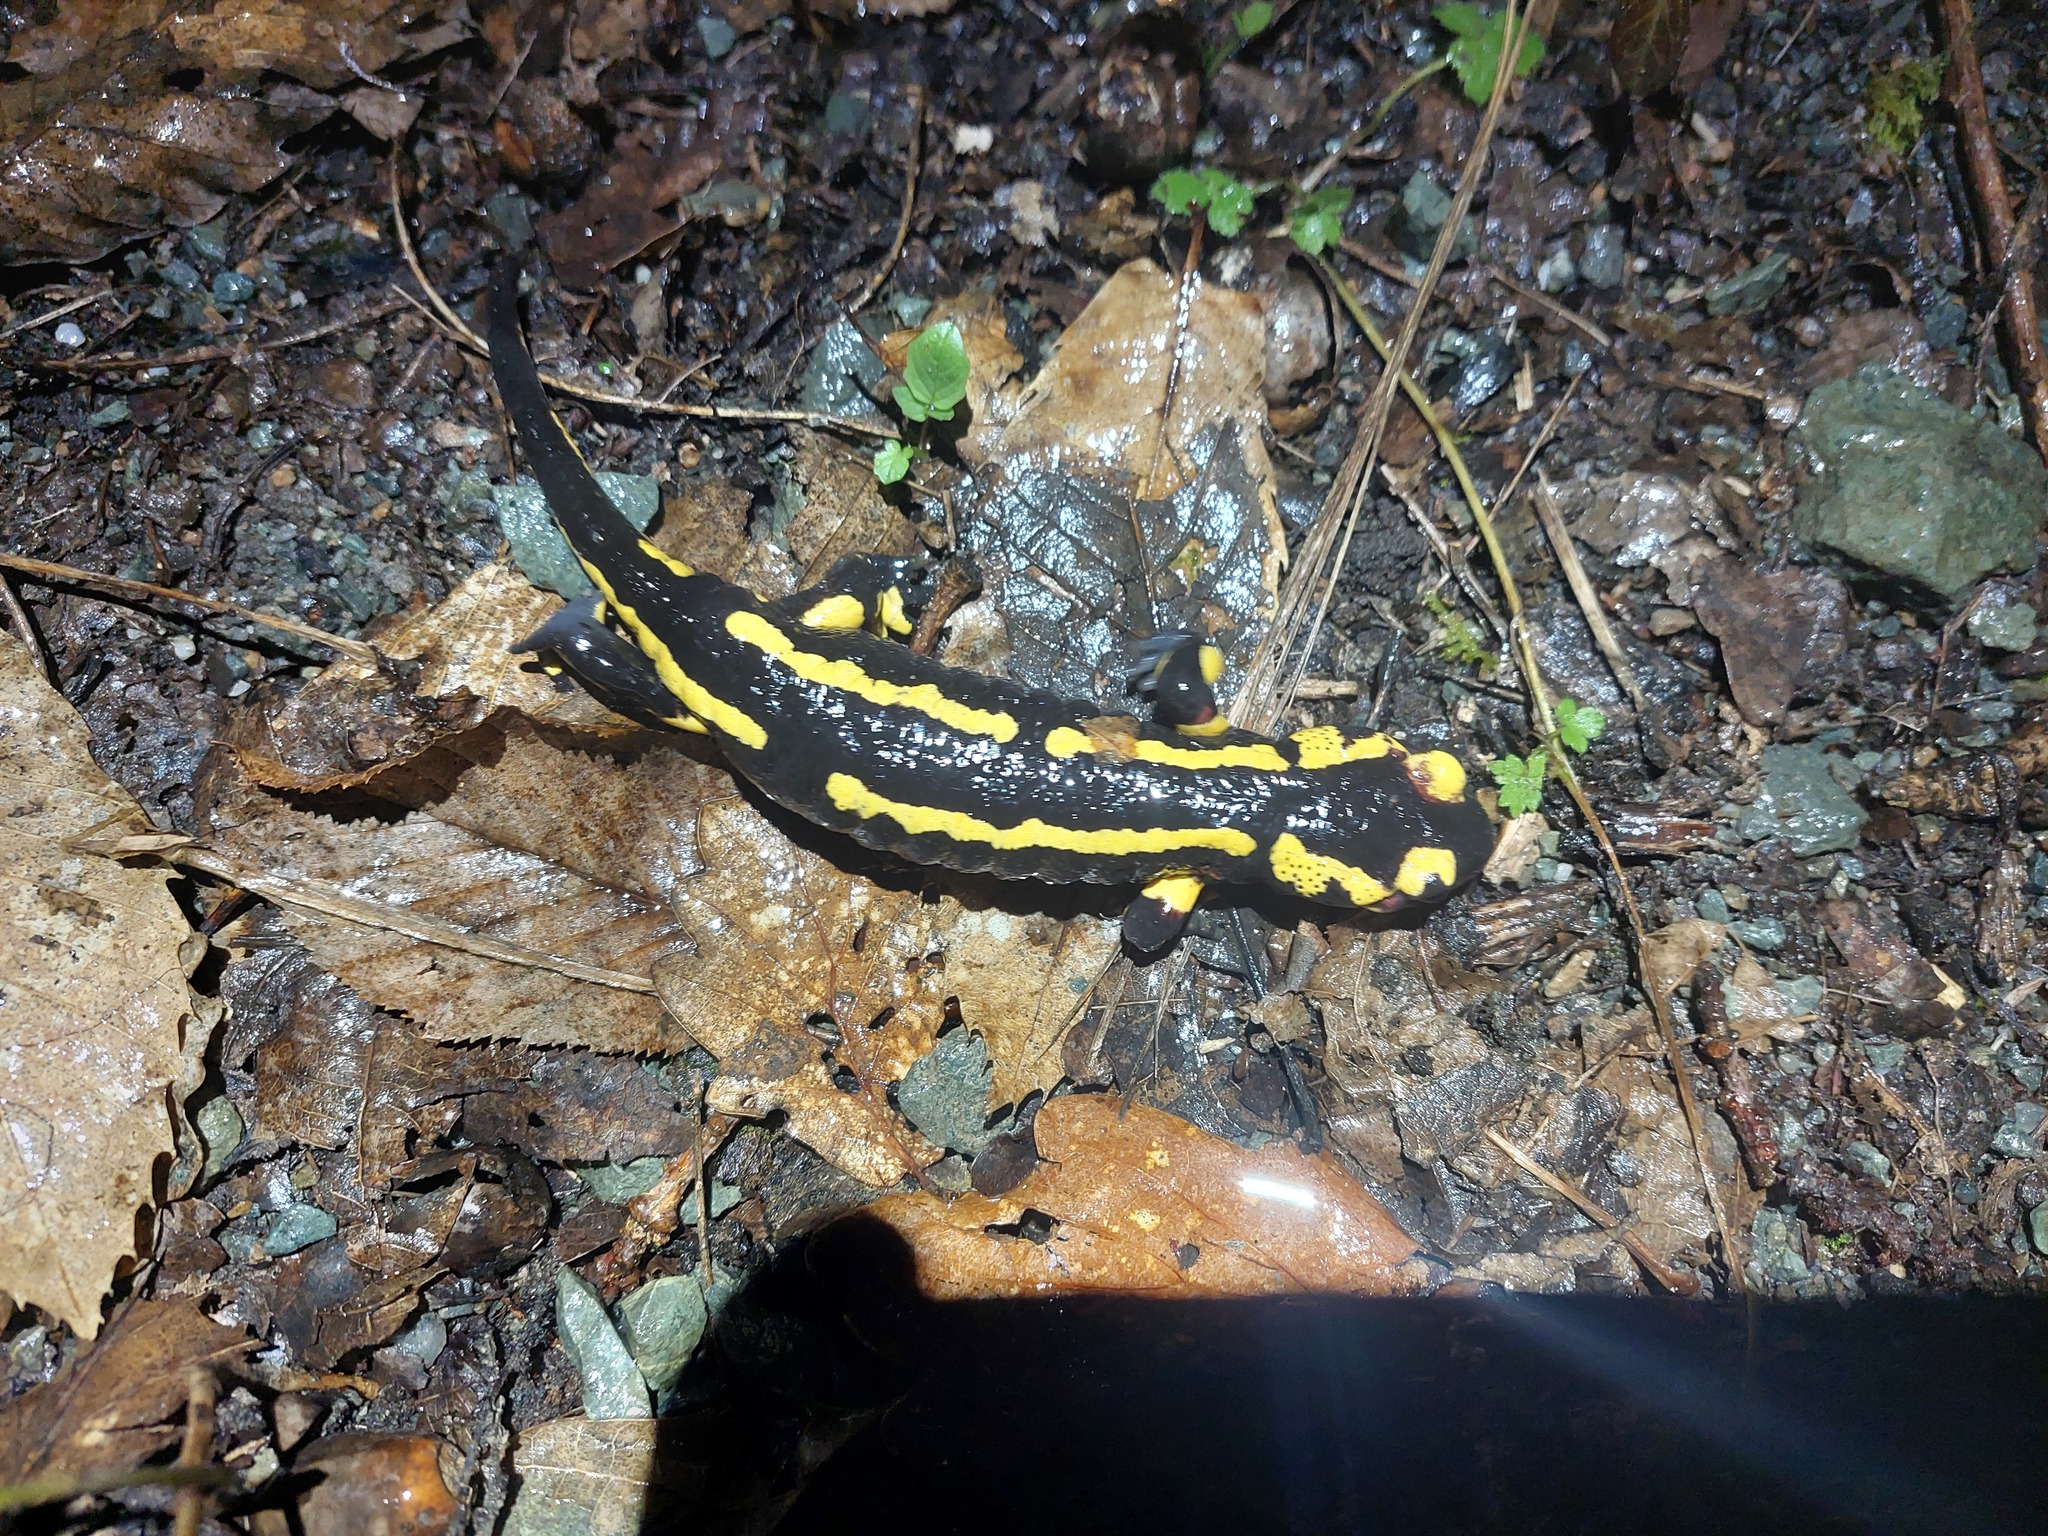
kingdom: Animalia
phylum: Chordata
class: Amphibia
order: Caudata
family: Salamandridae
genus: Salamandra
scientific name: Salamandra salamandra
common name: Fire salamander
